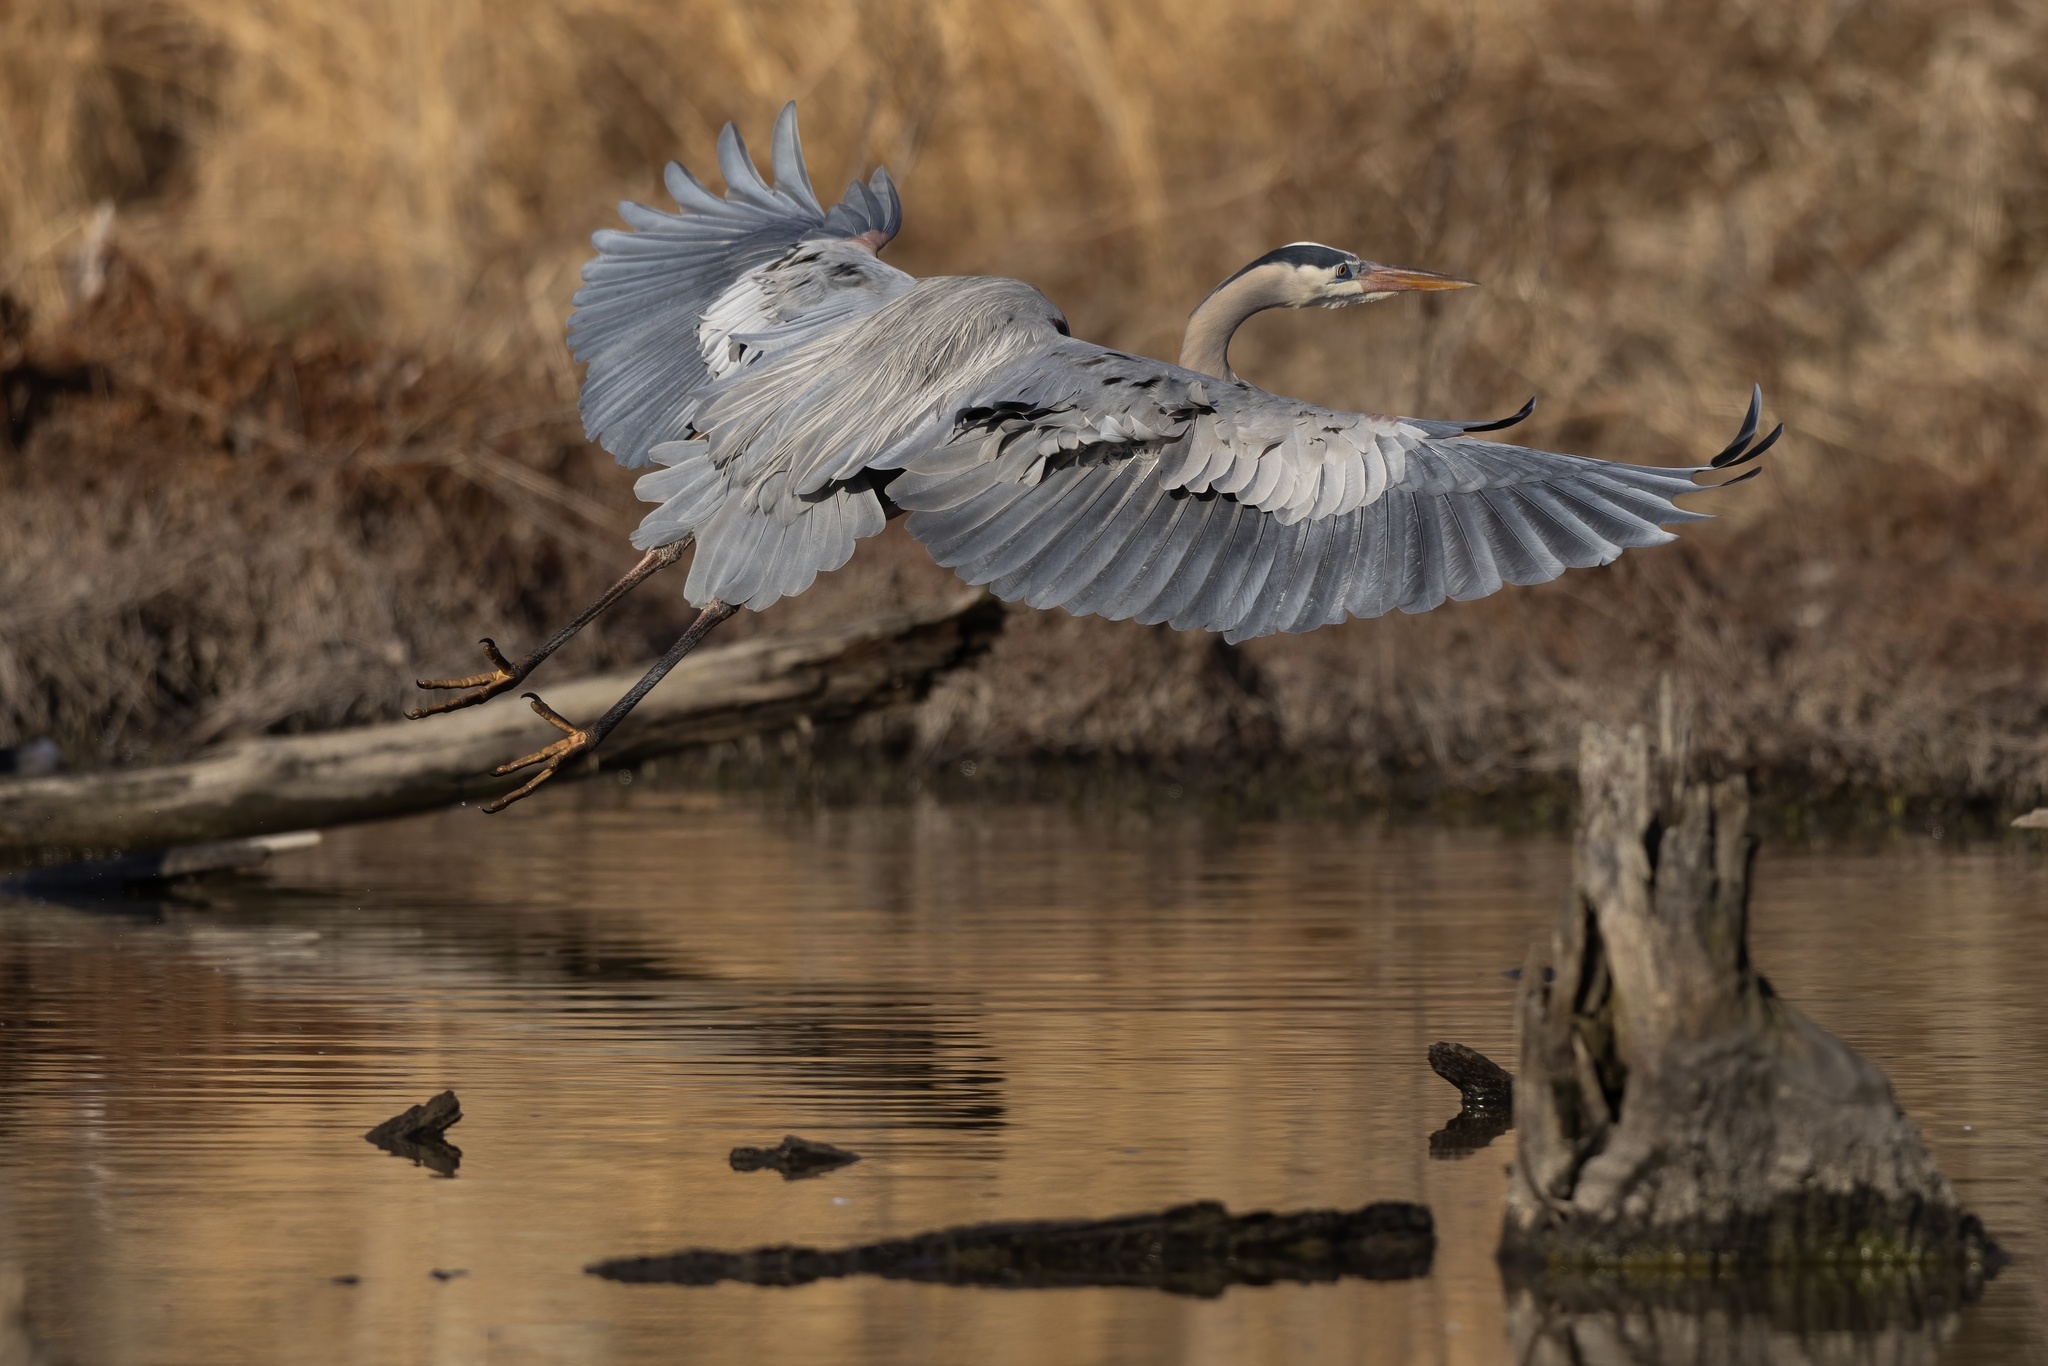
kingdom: Animalia
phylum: Chordata
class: Aves
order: Pelecaniformes
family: Ardeidae
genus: Ardea
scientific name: Ardea herodias
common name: Great blue heron
